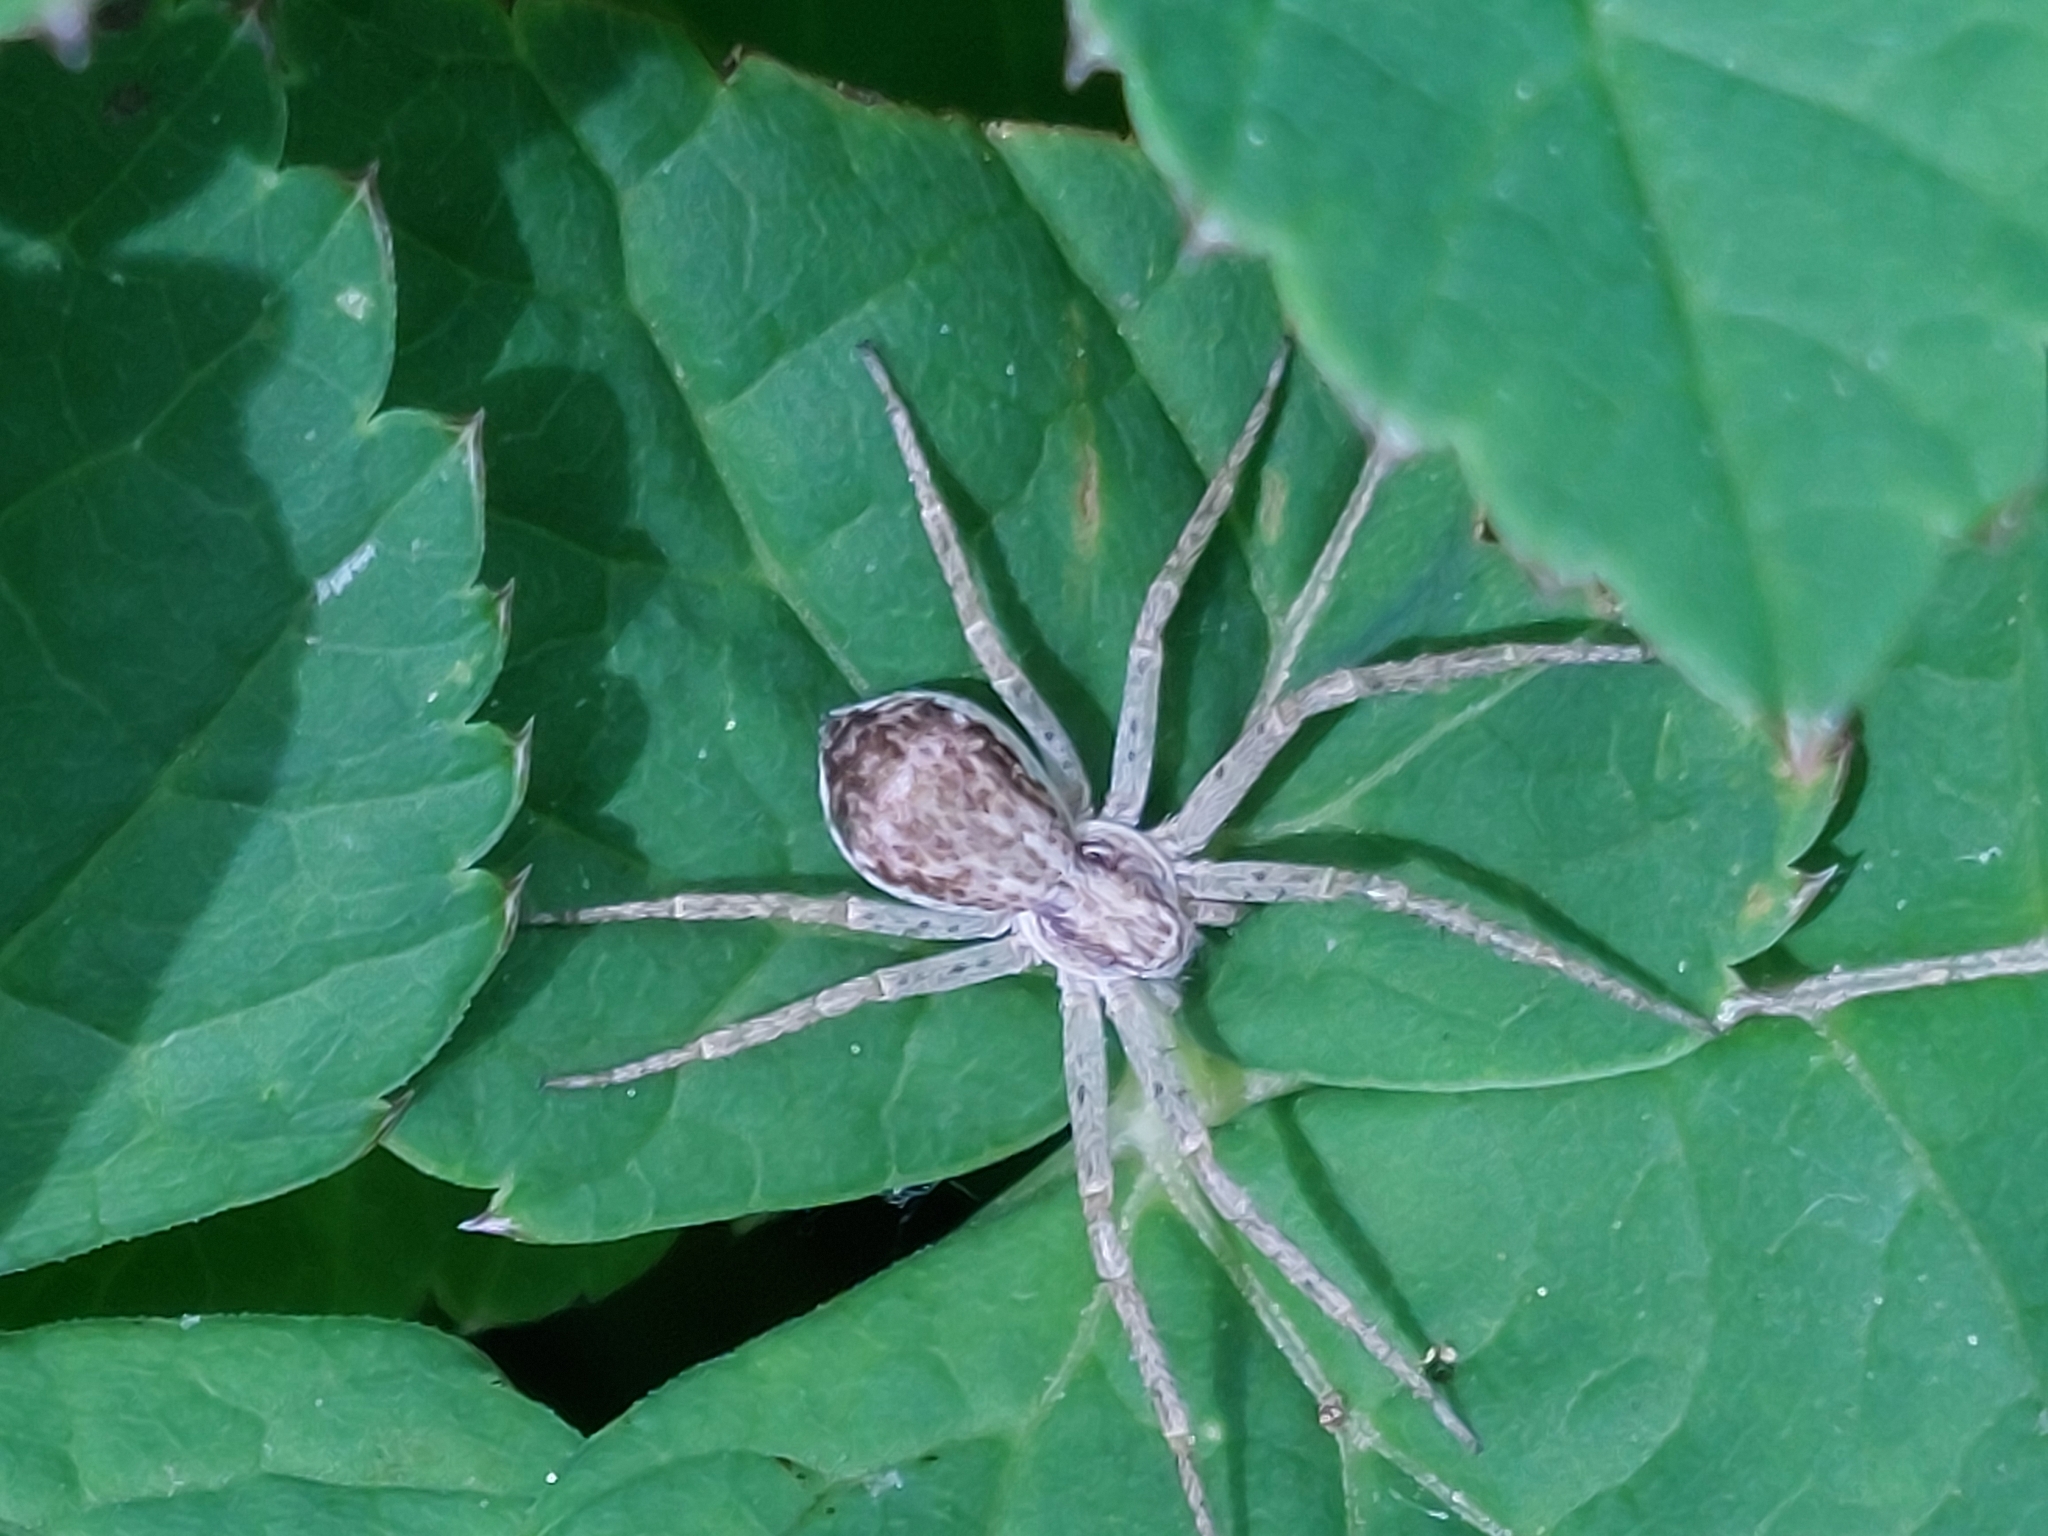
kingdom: Animalia
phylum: Arthropoda
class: Arachnida
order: Araneae
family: Philodromidae
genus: Philodromus
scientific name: Philodromus dispar
